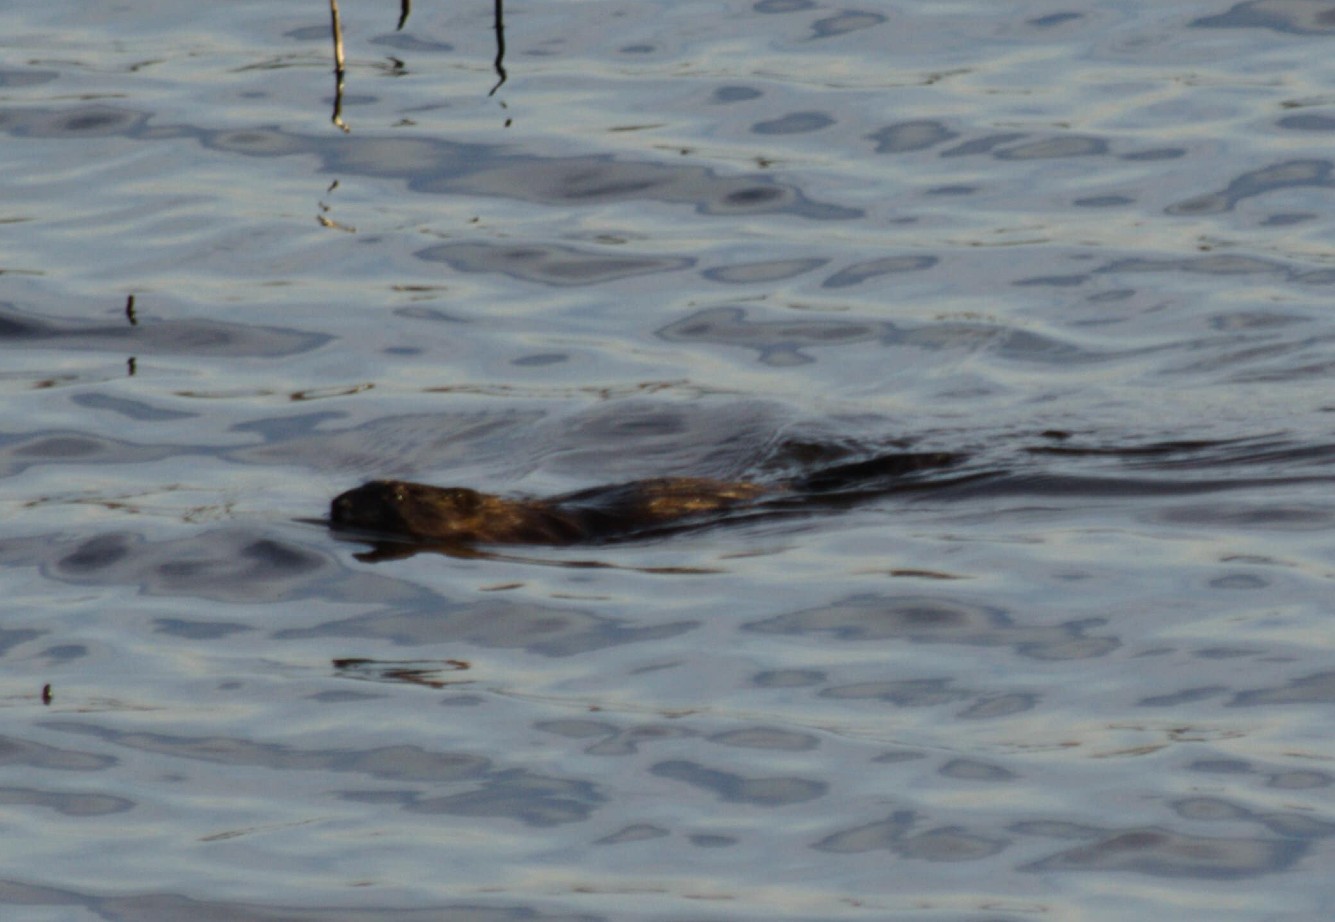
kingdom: Animalia
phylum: Chordata
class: Mammalia
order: Rodentia
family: Cricetidae
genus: Ondatra
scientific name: Ondatra zibethicus
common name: Muskrat
